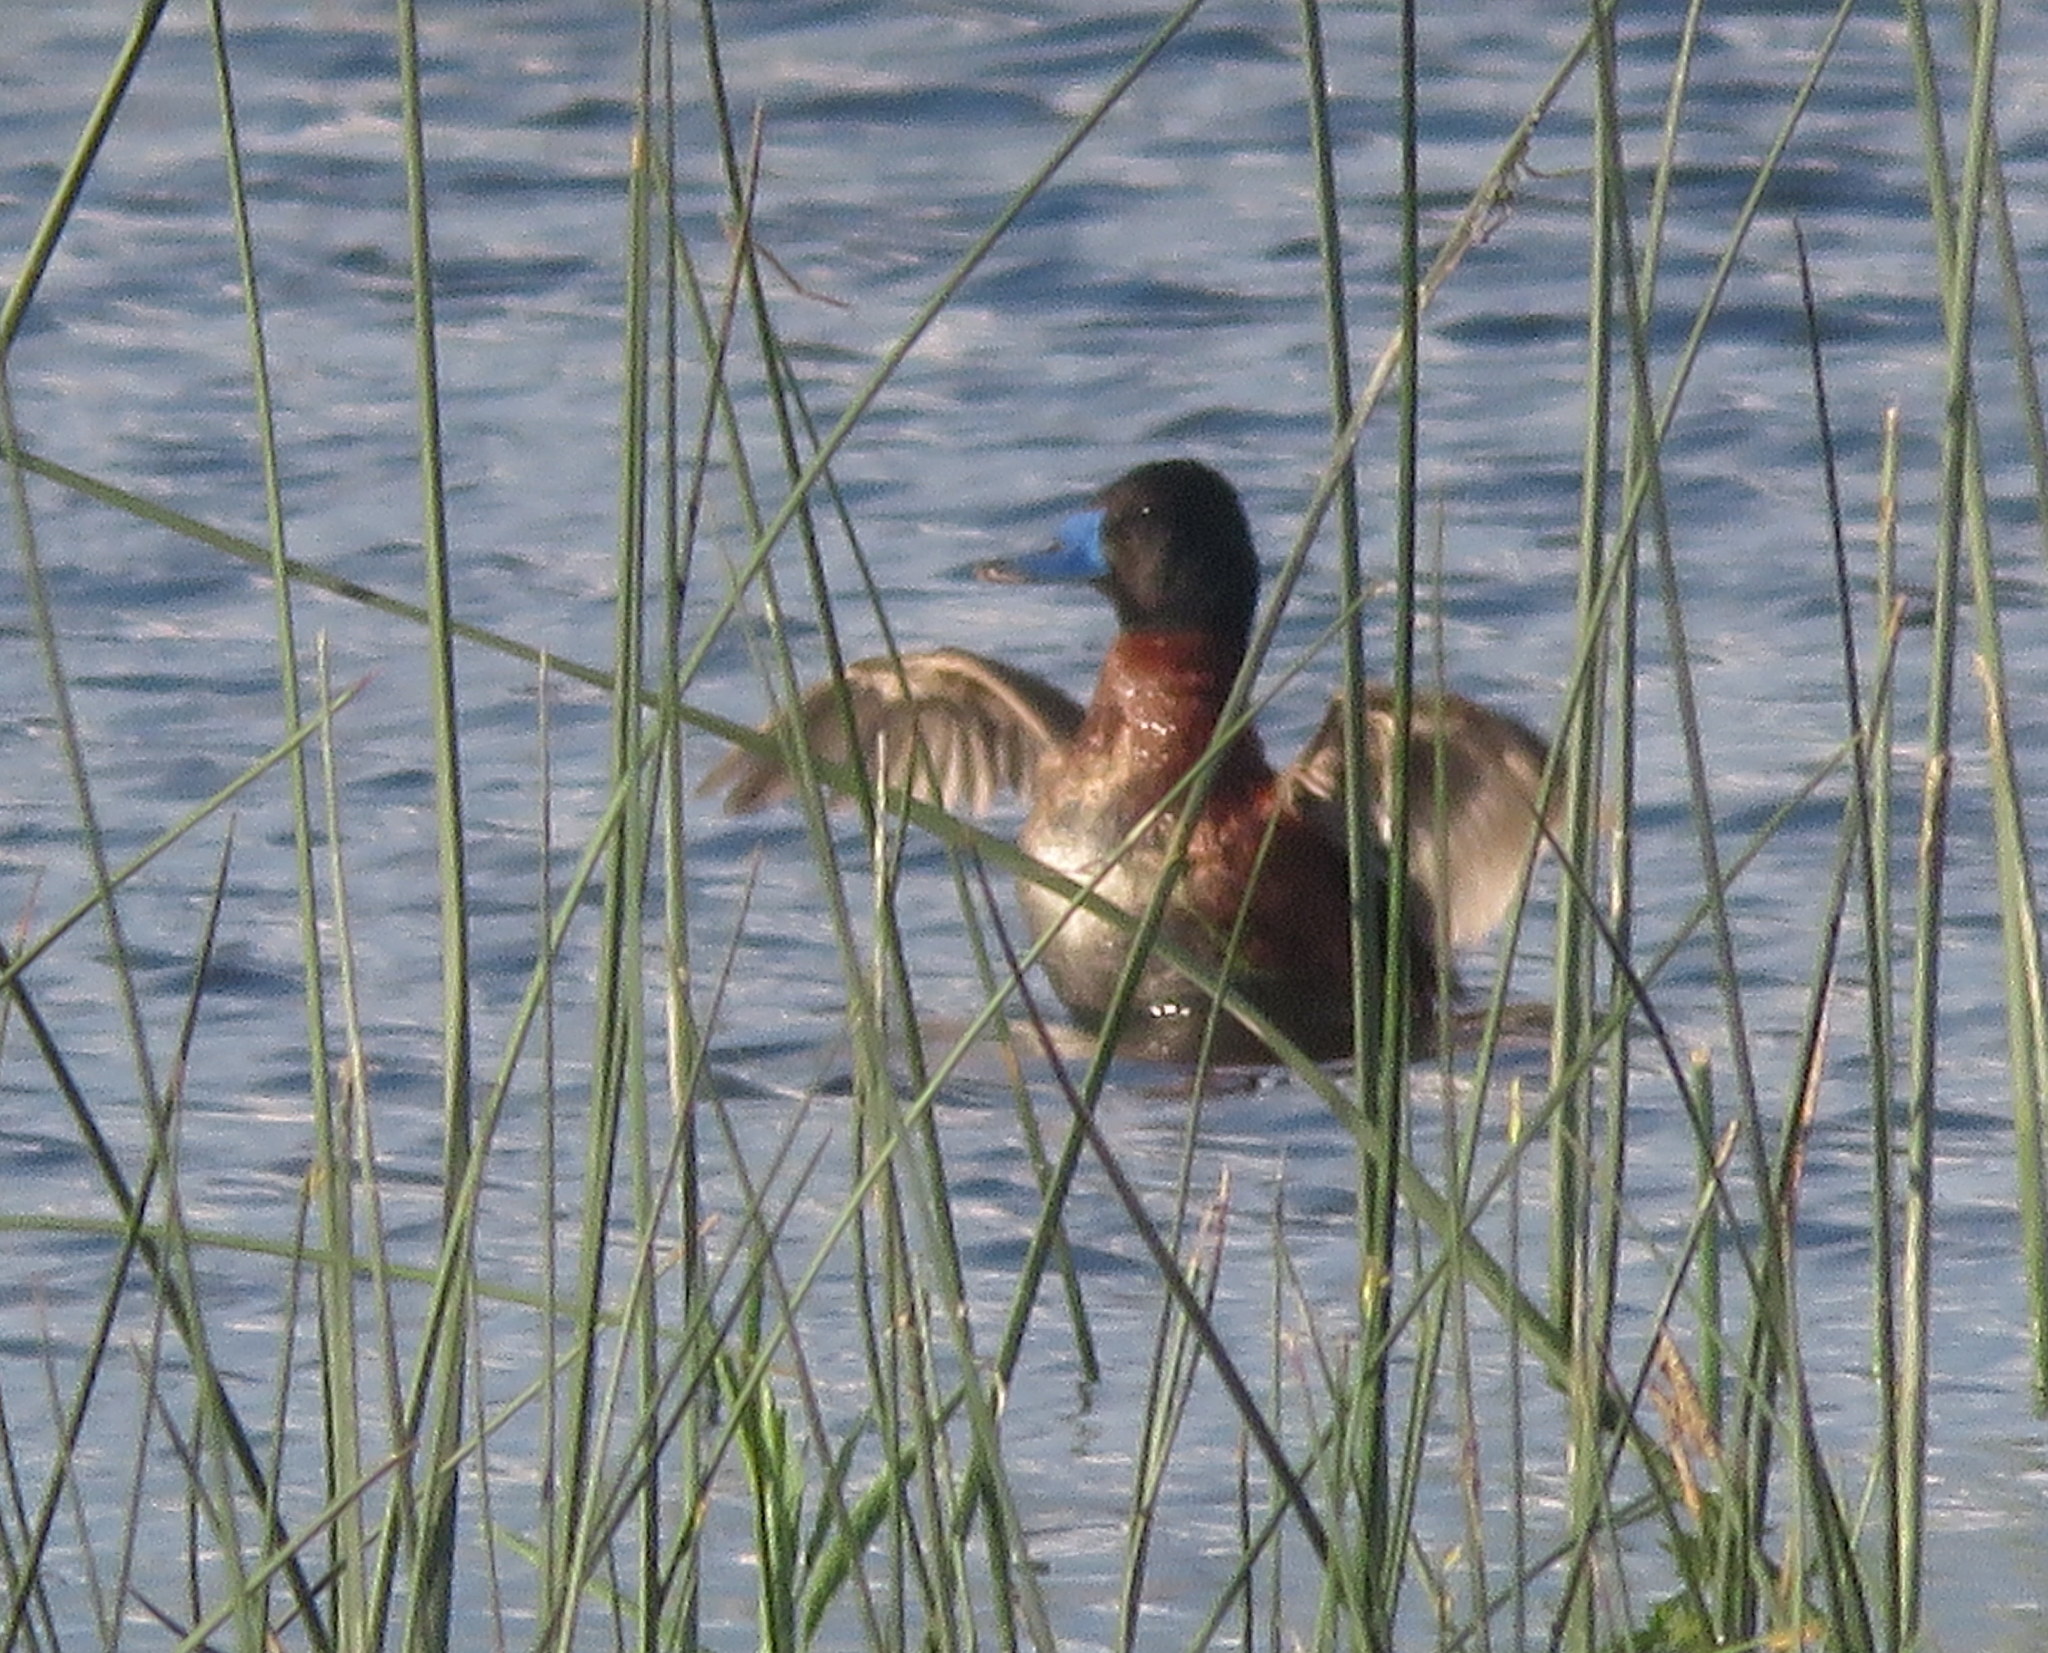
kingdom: Animalia
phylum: Chordata
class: Aves
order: Anseriformes
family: Anatidae
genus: Oxyura
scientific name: Oxyura vittata
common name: Lake duck
